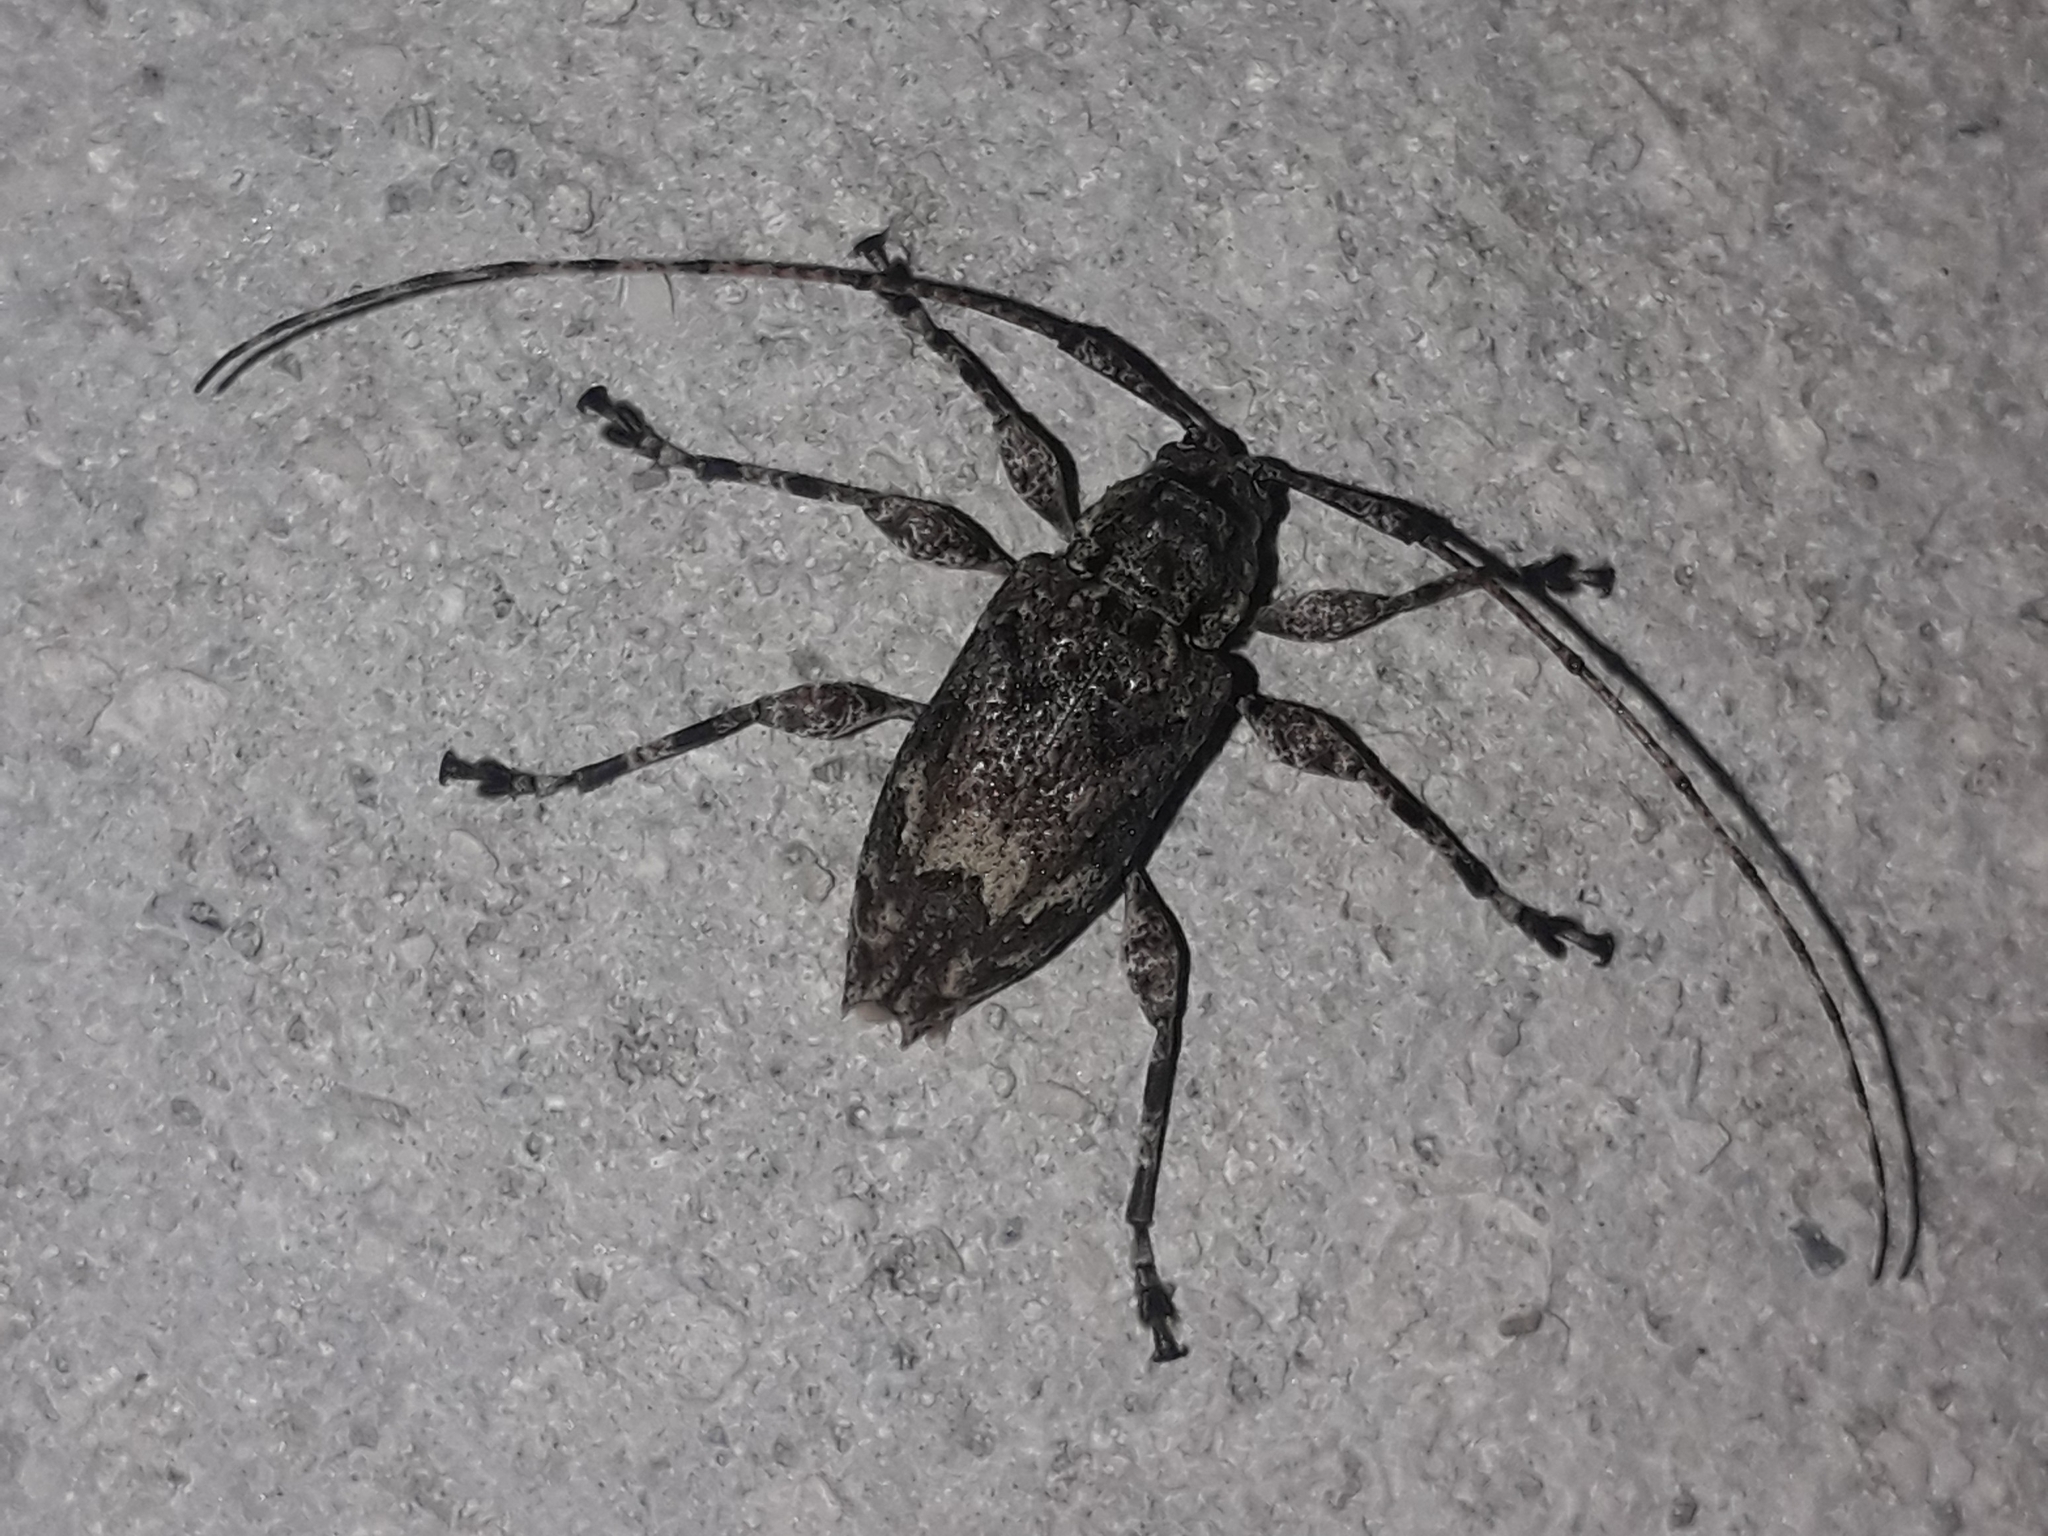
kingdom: Animalia
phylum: Arthropoda
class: Insecta
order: Coleoptera
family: Cerambycidae
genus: Amniscus
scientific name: Amniscus assimilis
